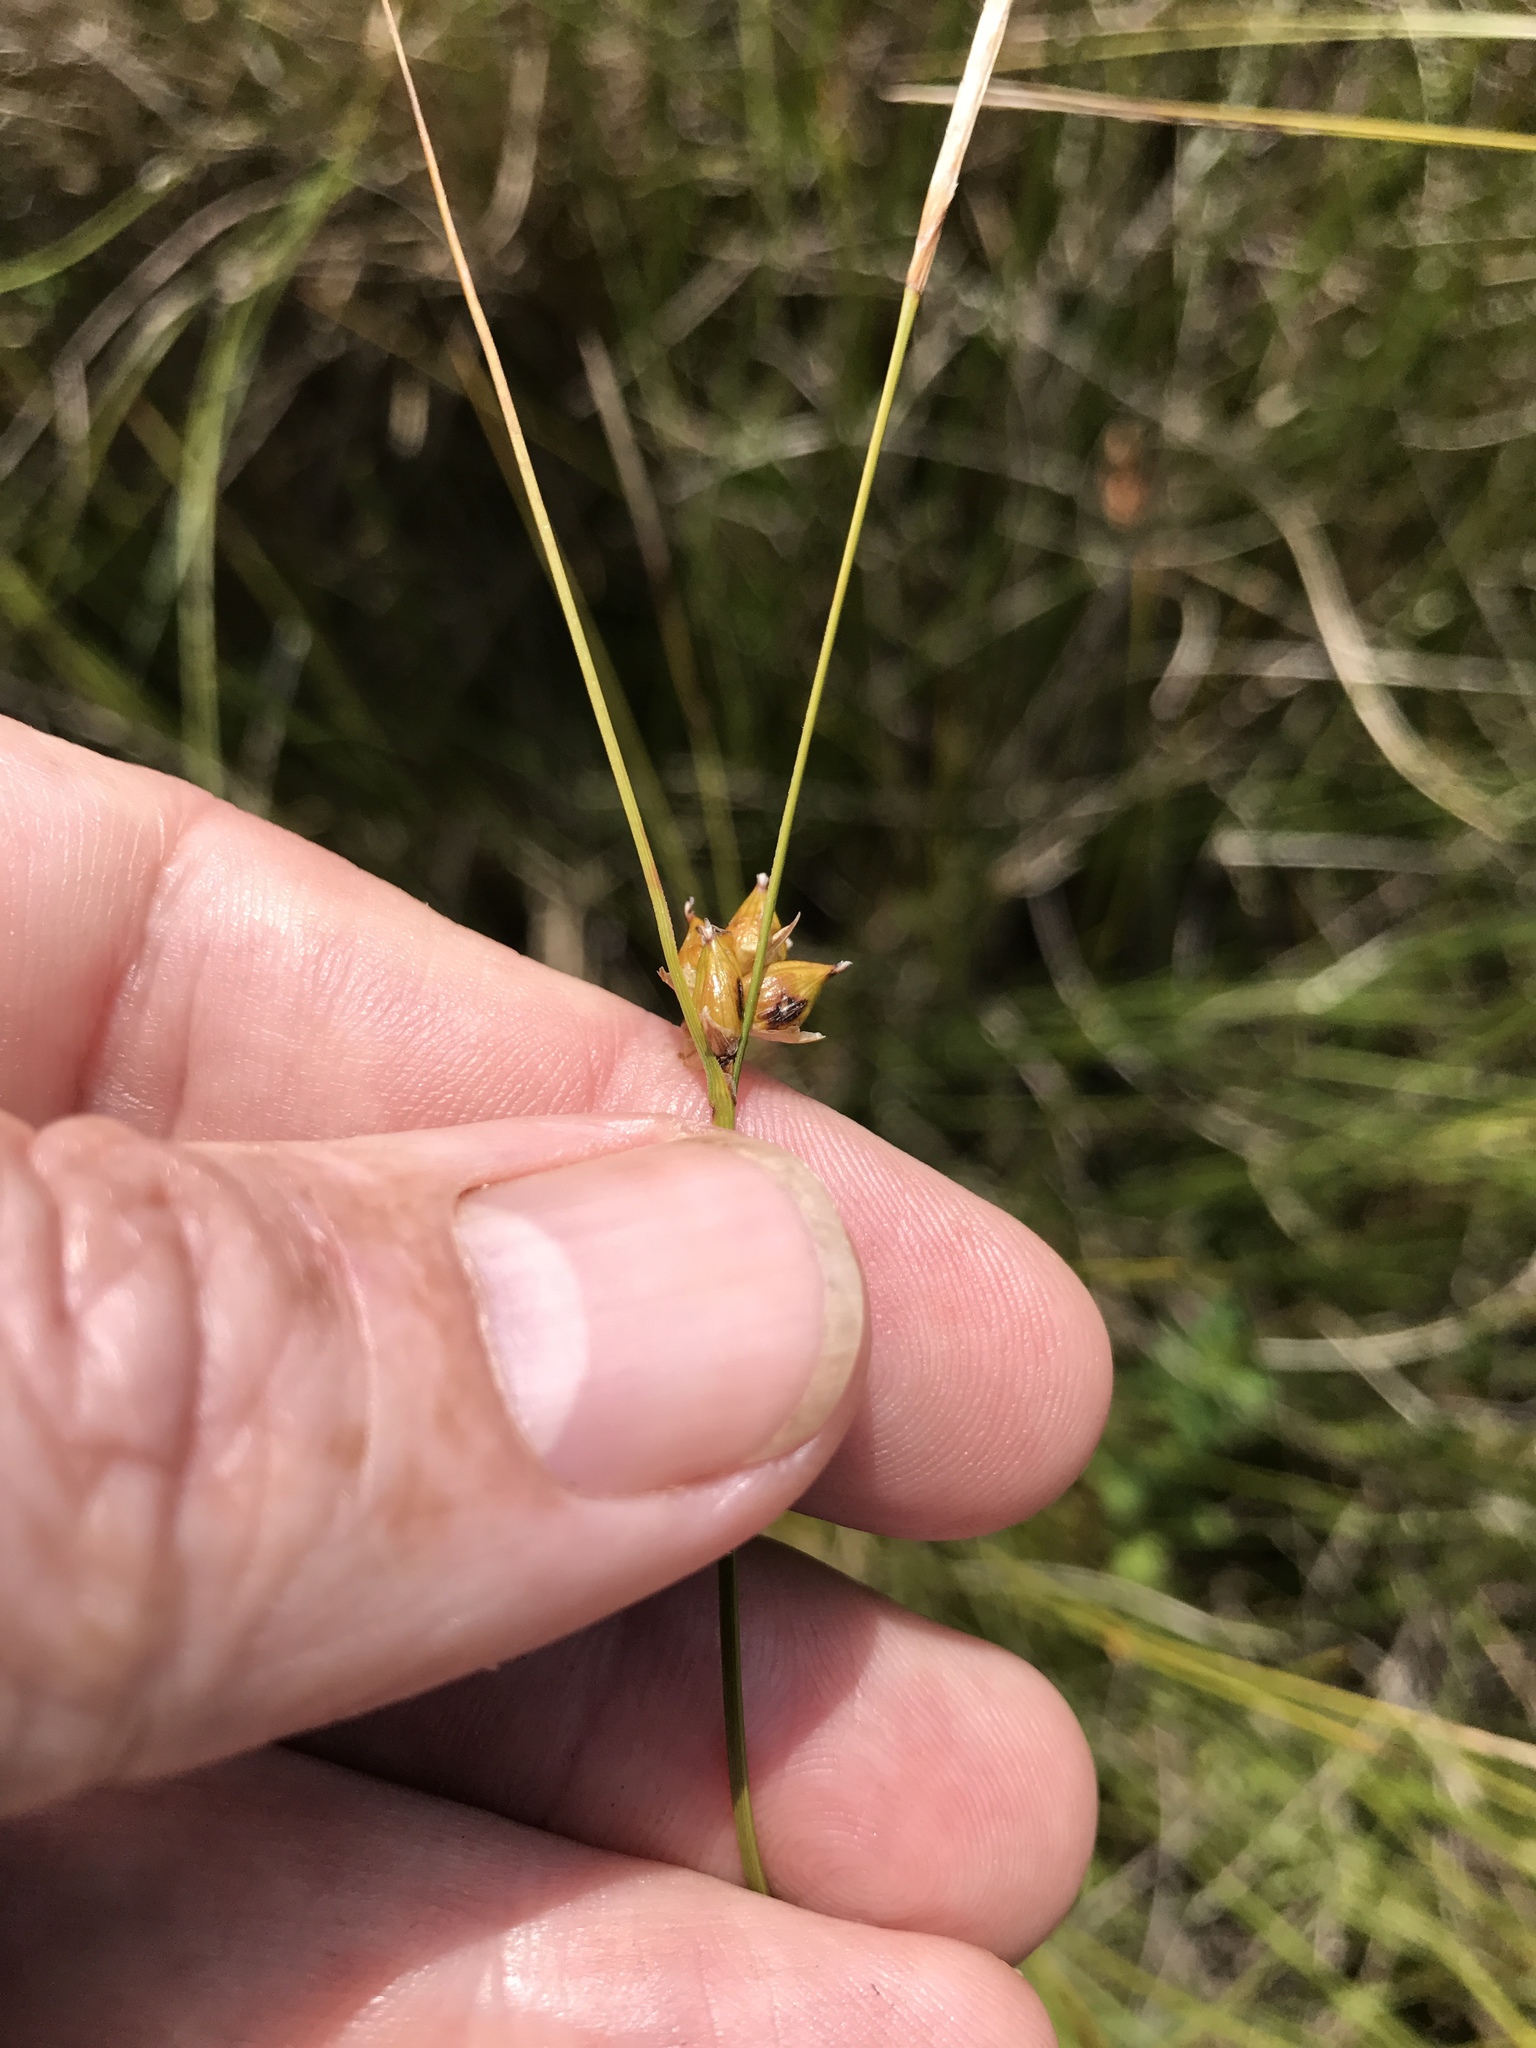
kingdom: Plantae
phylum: Tracheophyta
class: Liliopsida
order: Poales
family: Cyperaceae
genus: Carex
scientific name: Carex oligosperma
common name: Few-seed sedge
